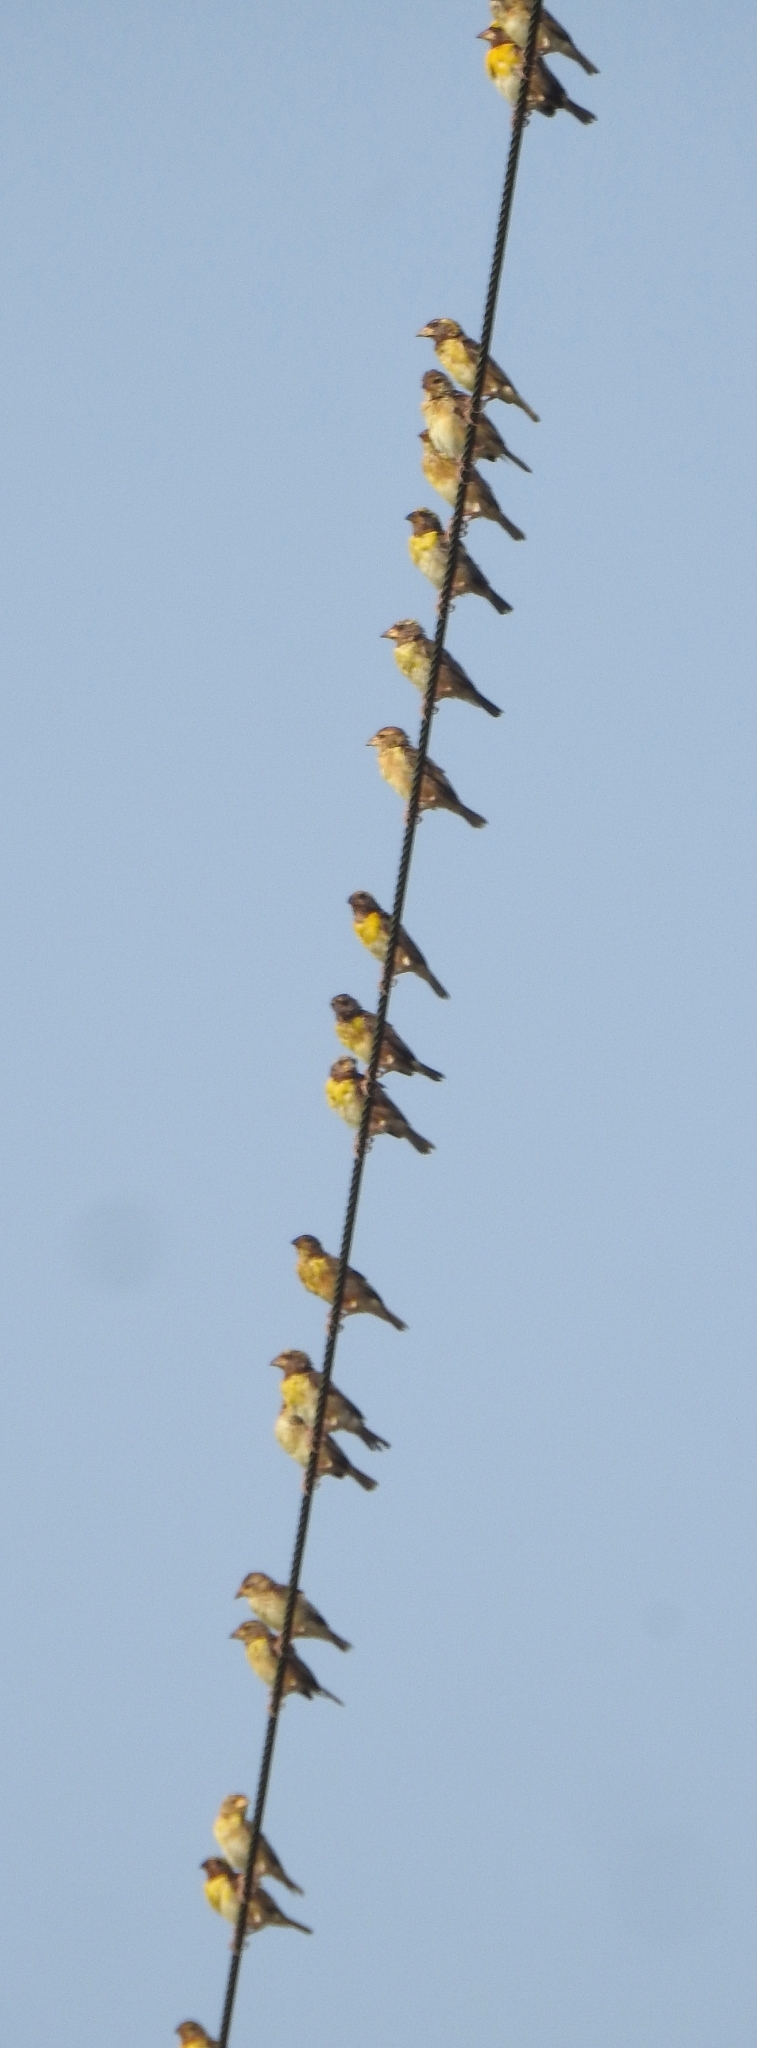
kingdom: Animalia
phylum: Chordata
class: Aves
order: Passeriformes
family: Ploceidae
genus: Ploceus
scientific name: Ploceus philippinus
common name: Baya weaver
